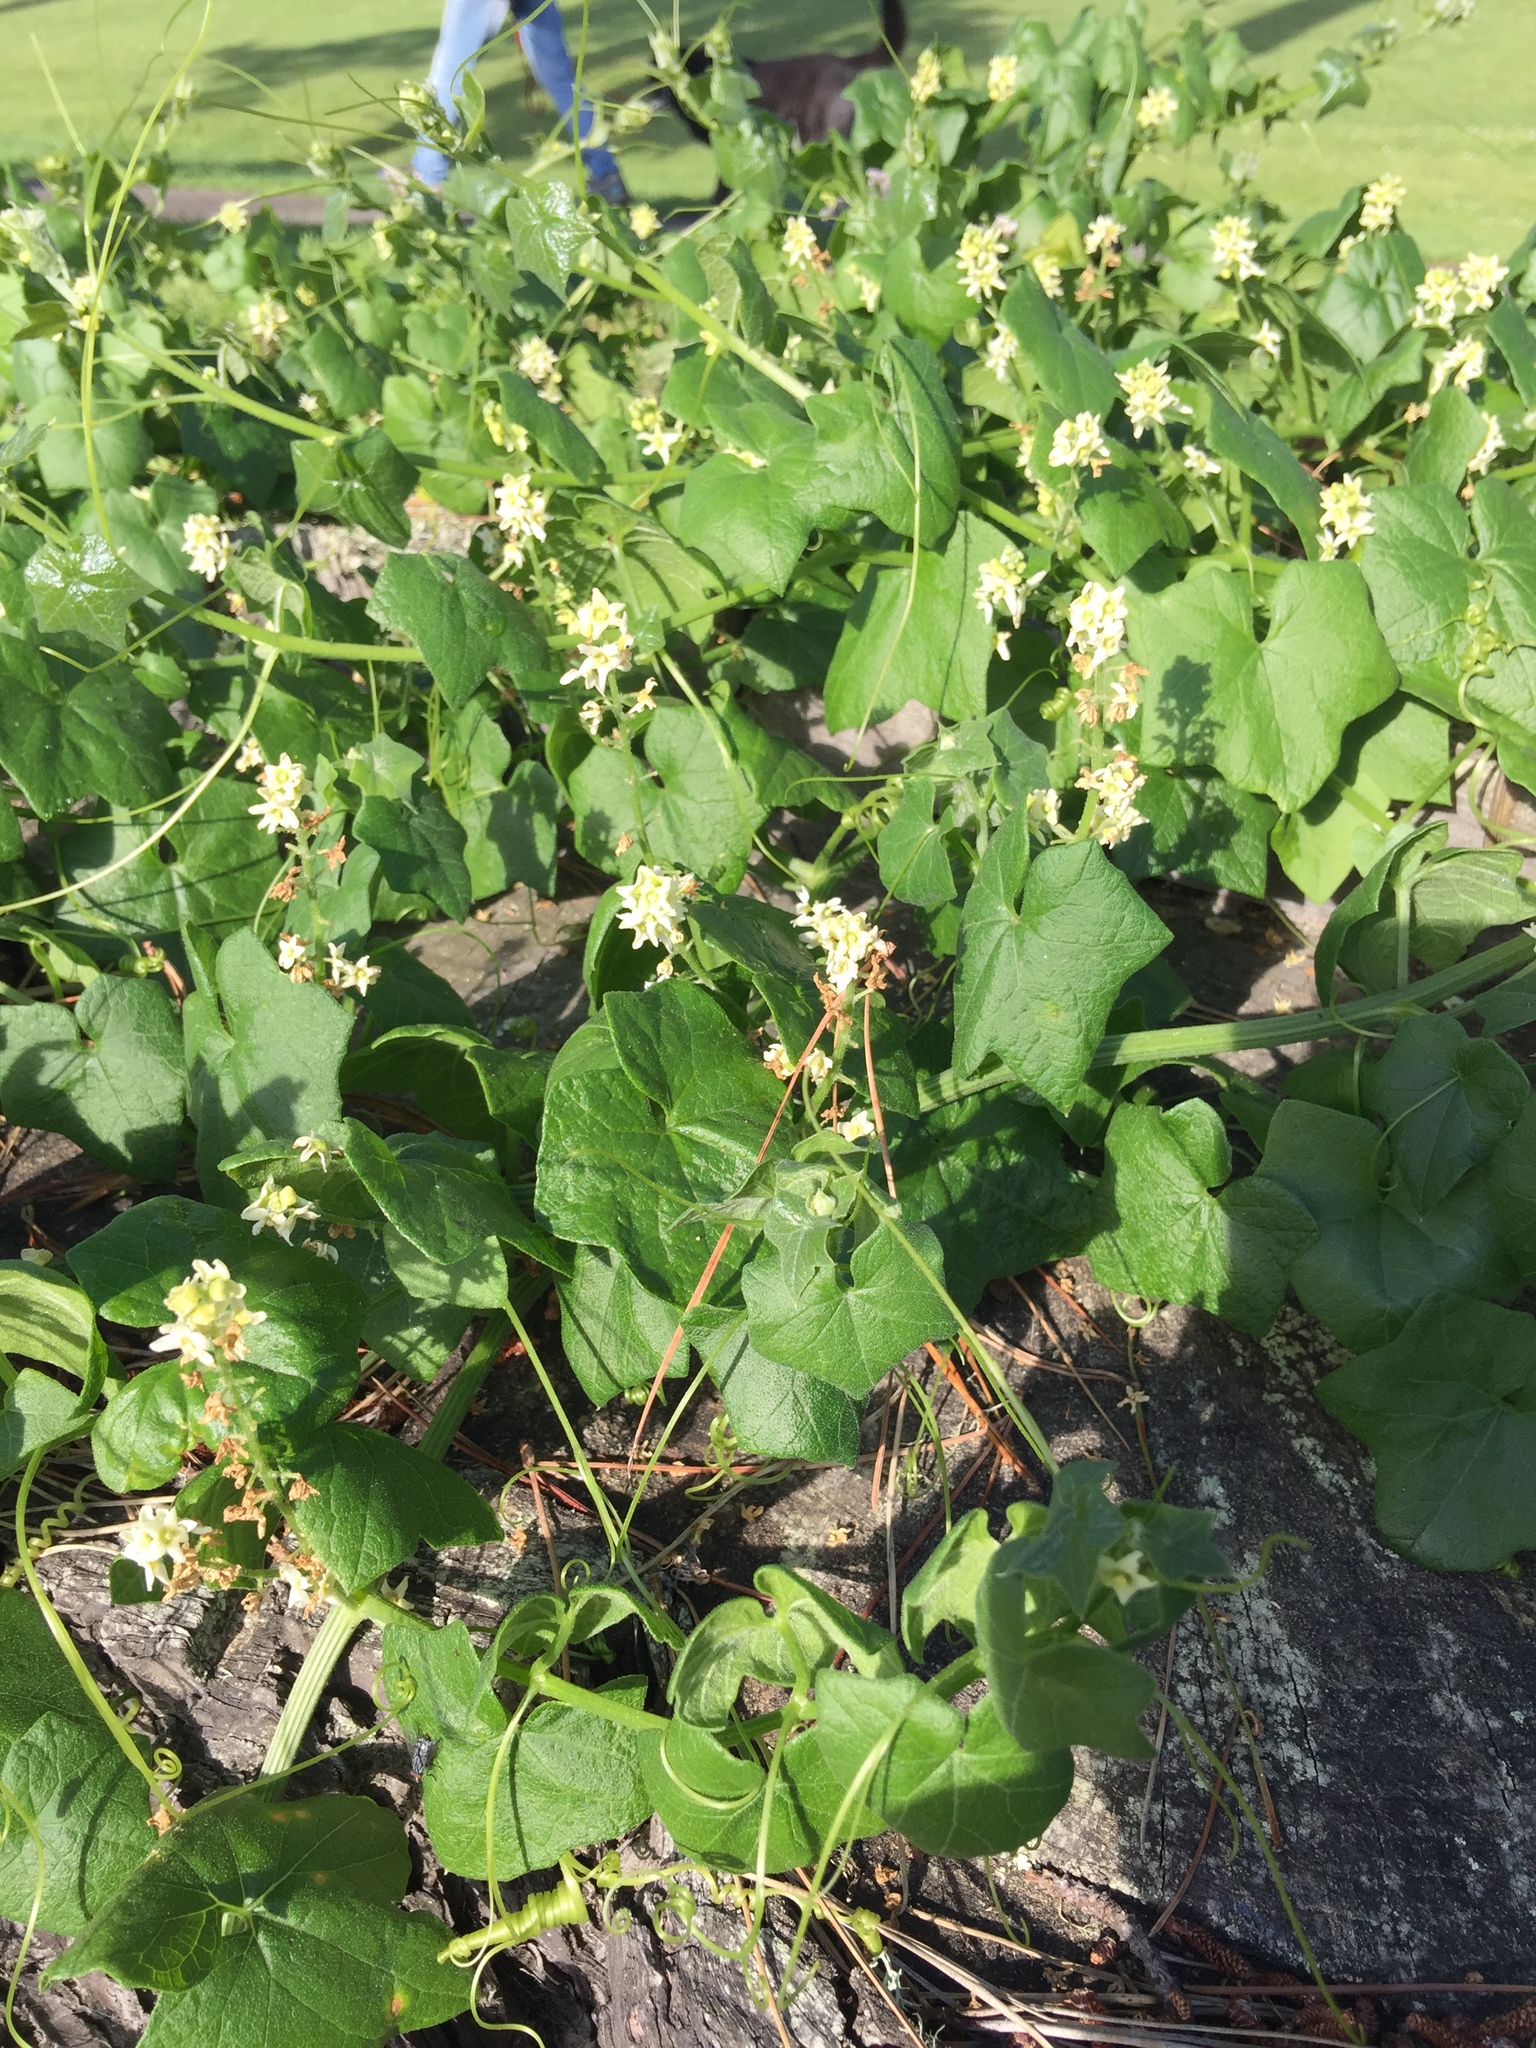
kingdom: Plantae
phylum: Tracheophyta
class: Magnoliopsida
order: Cucurbitales
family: Cucurbitaceae
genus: Marah
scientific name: Marah fabacea
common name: California manroot
